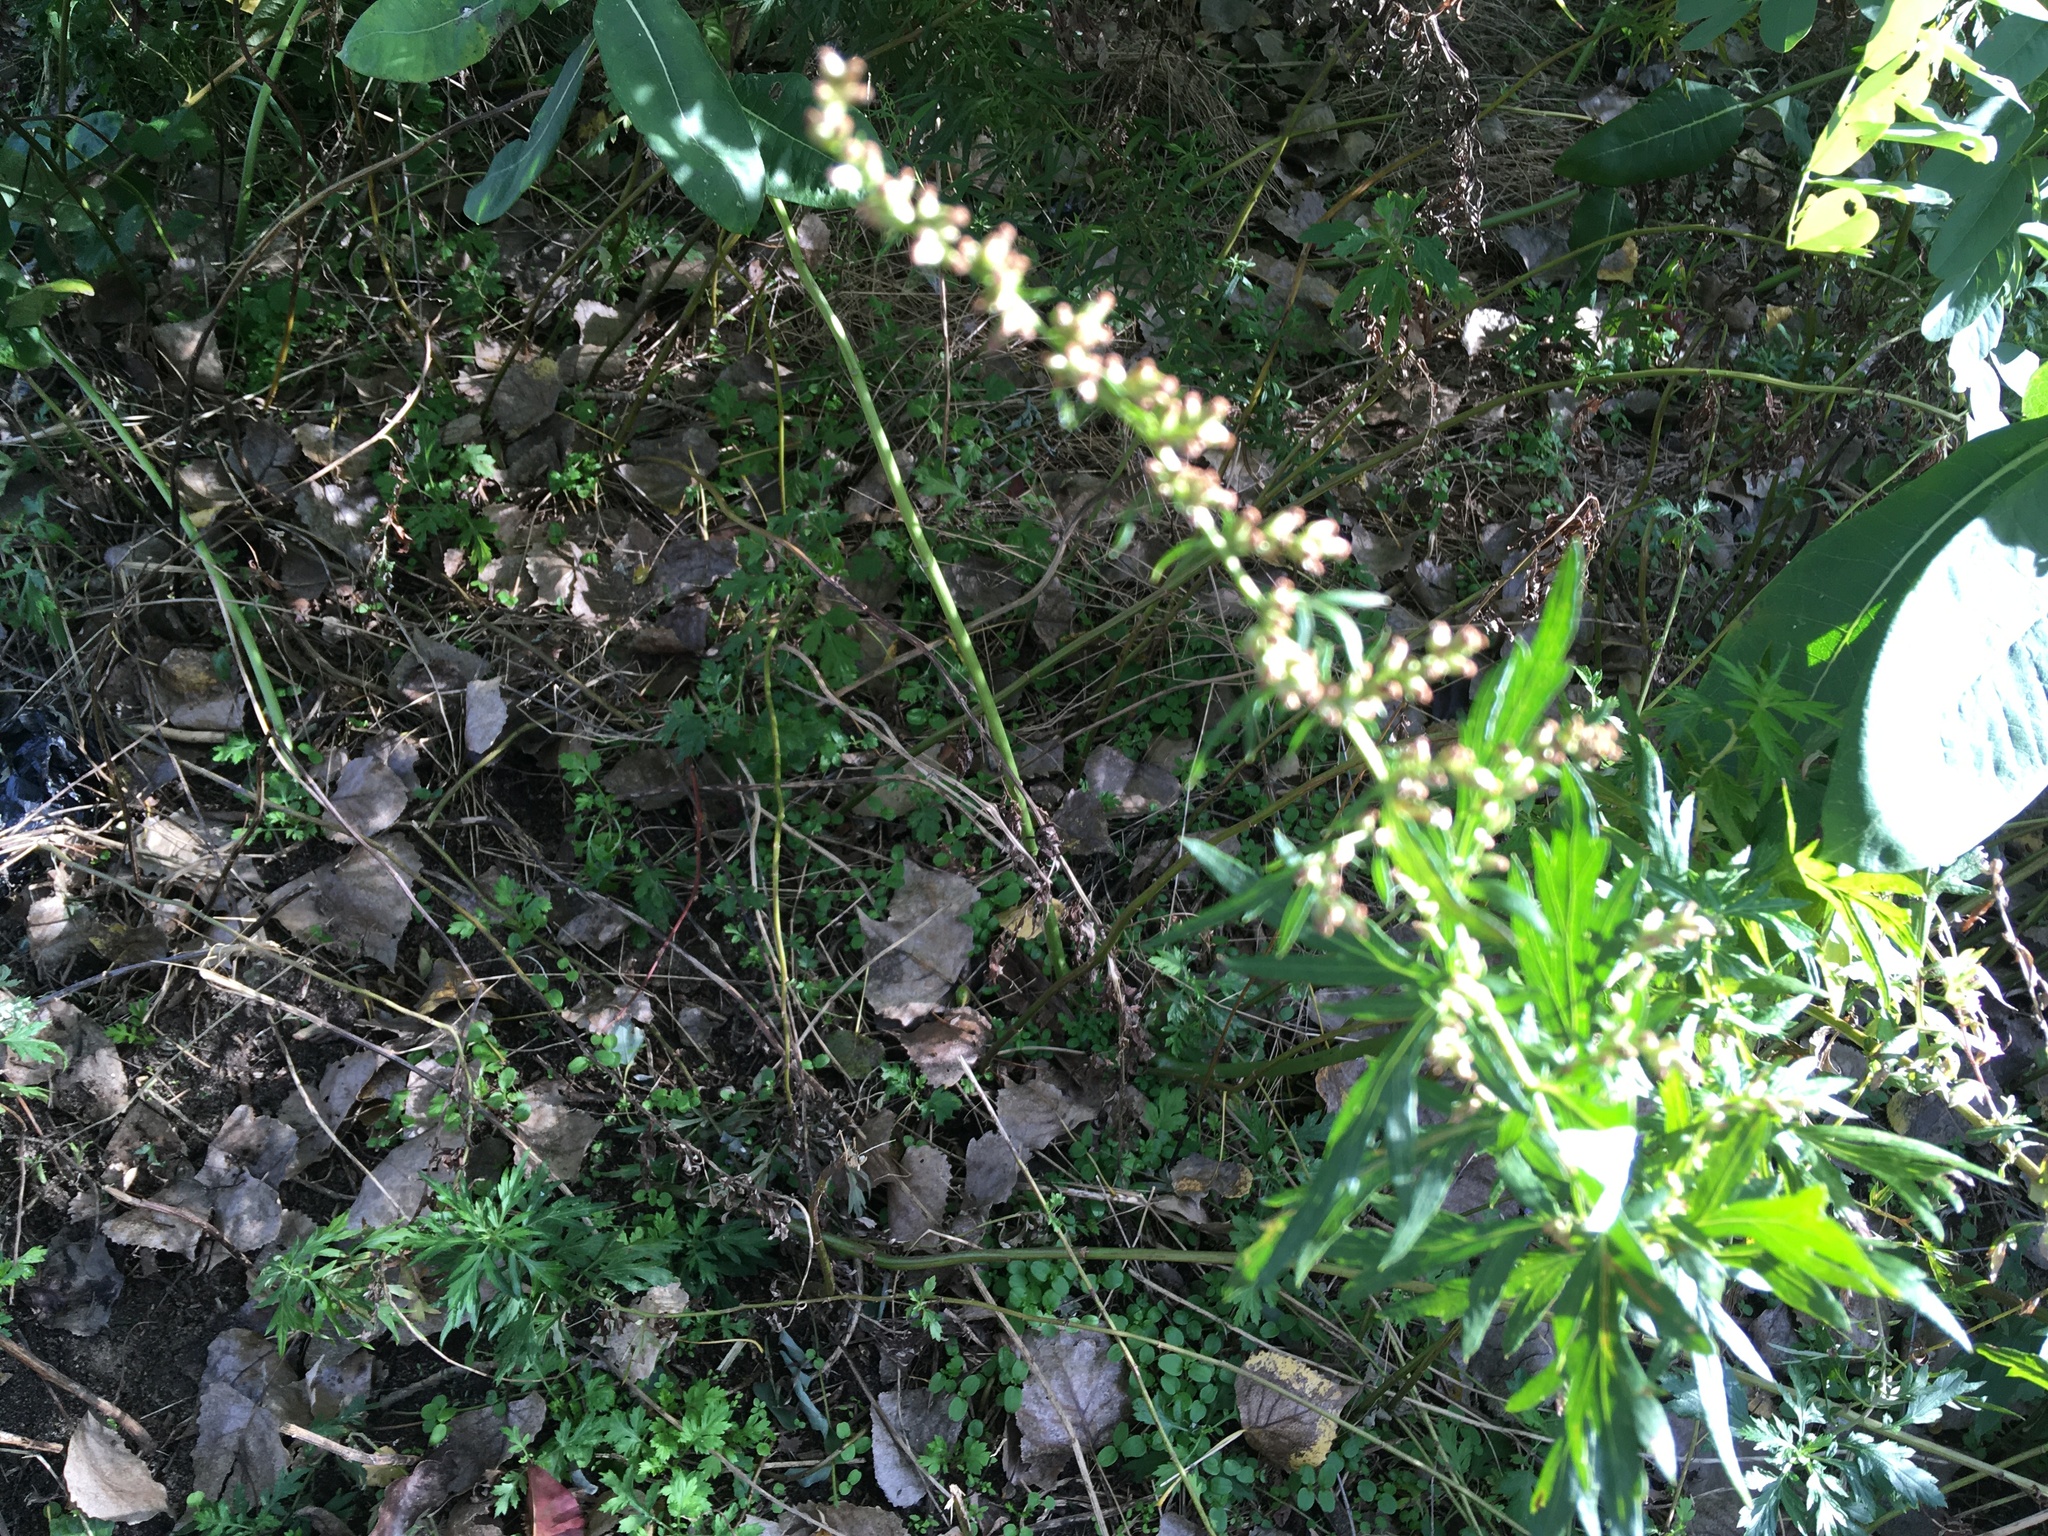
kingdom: Plantae
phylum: Tracheophyta
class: Magnoliopsida
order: Asterales
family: Asteraceae
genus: Artemisia
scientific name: Artemisia vulgaris
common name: Mugwort
